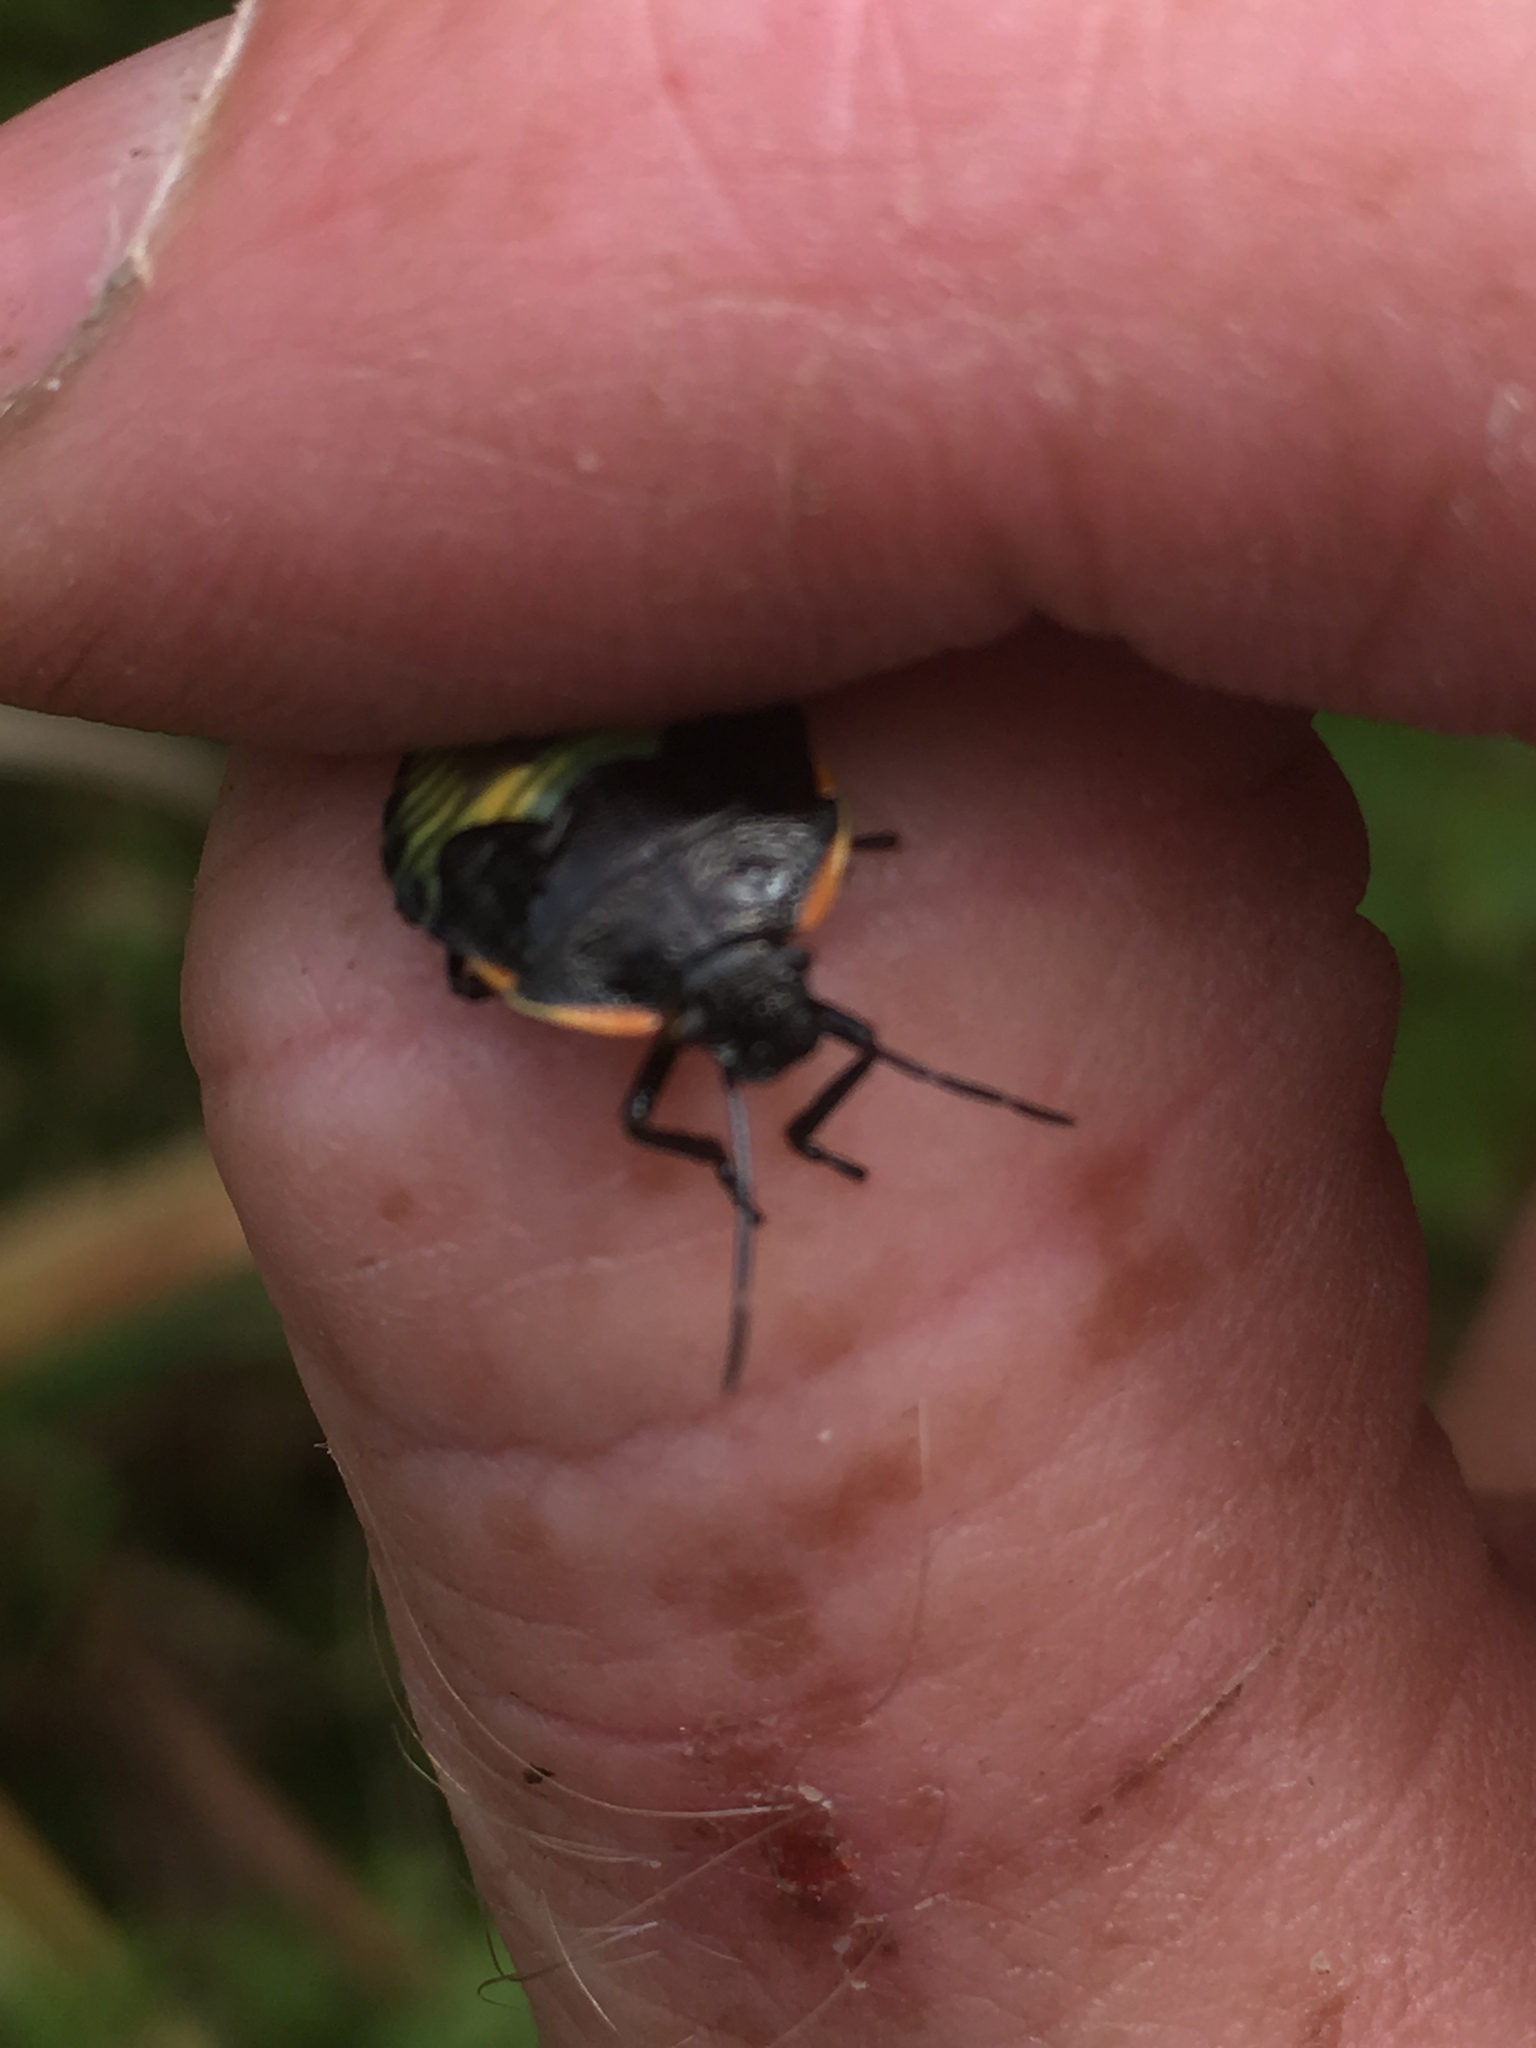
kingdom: Animalia
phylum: Arthropoda
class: Insecta
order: Hemiptera
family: Pentatomidae
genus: Chinavia
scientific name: Chinavia hilaris
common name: Green stink bug
